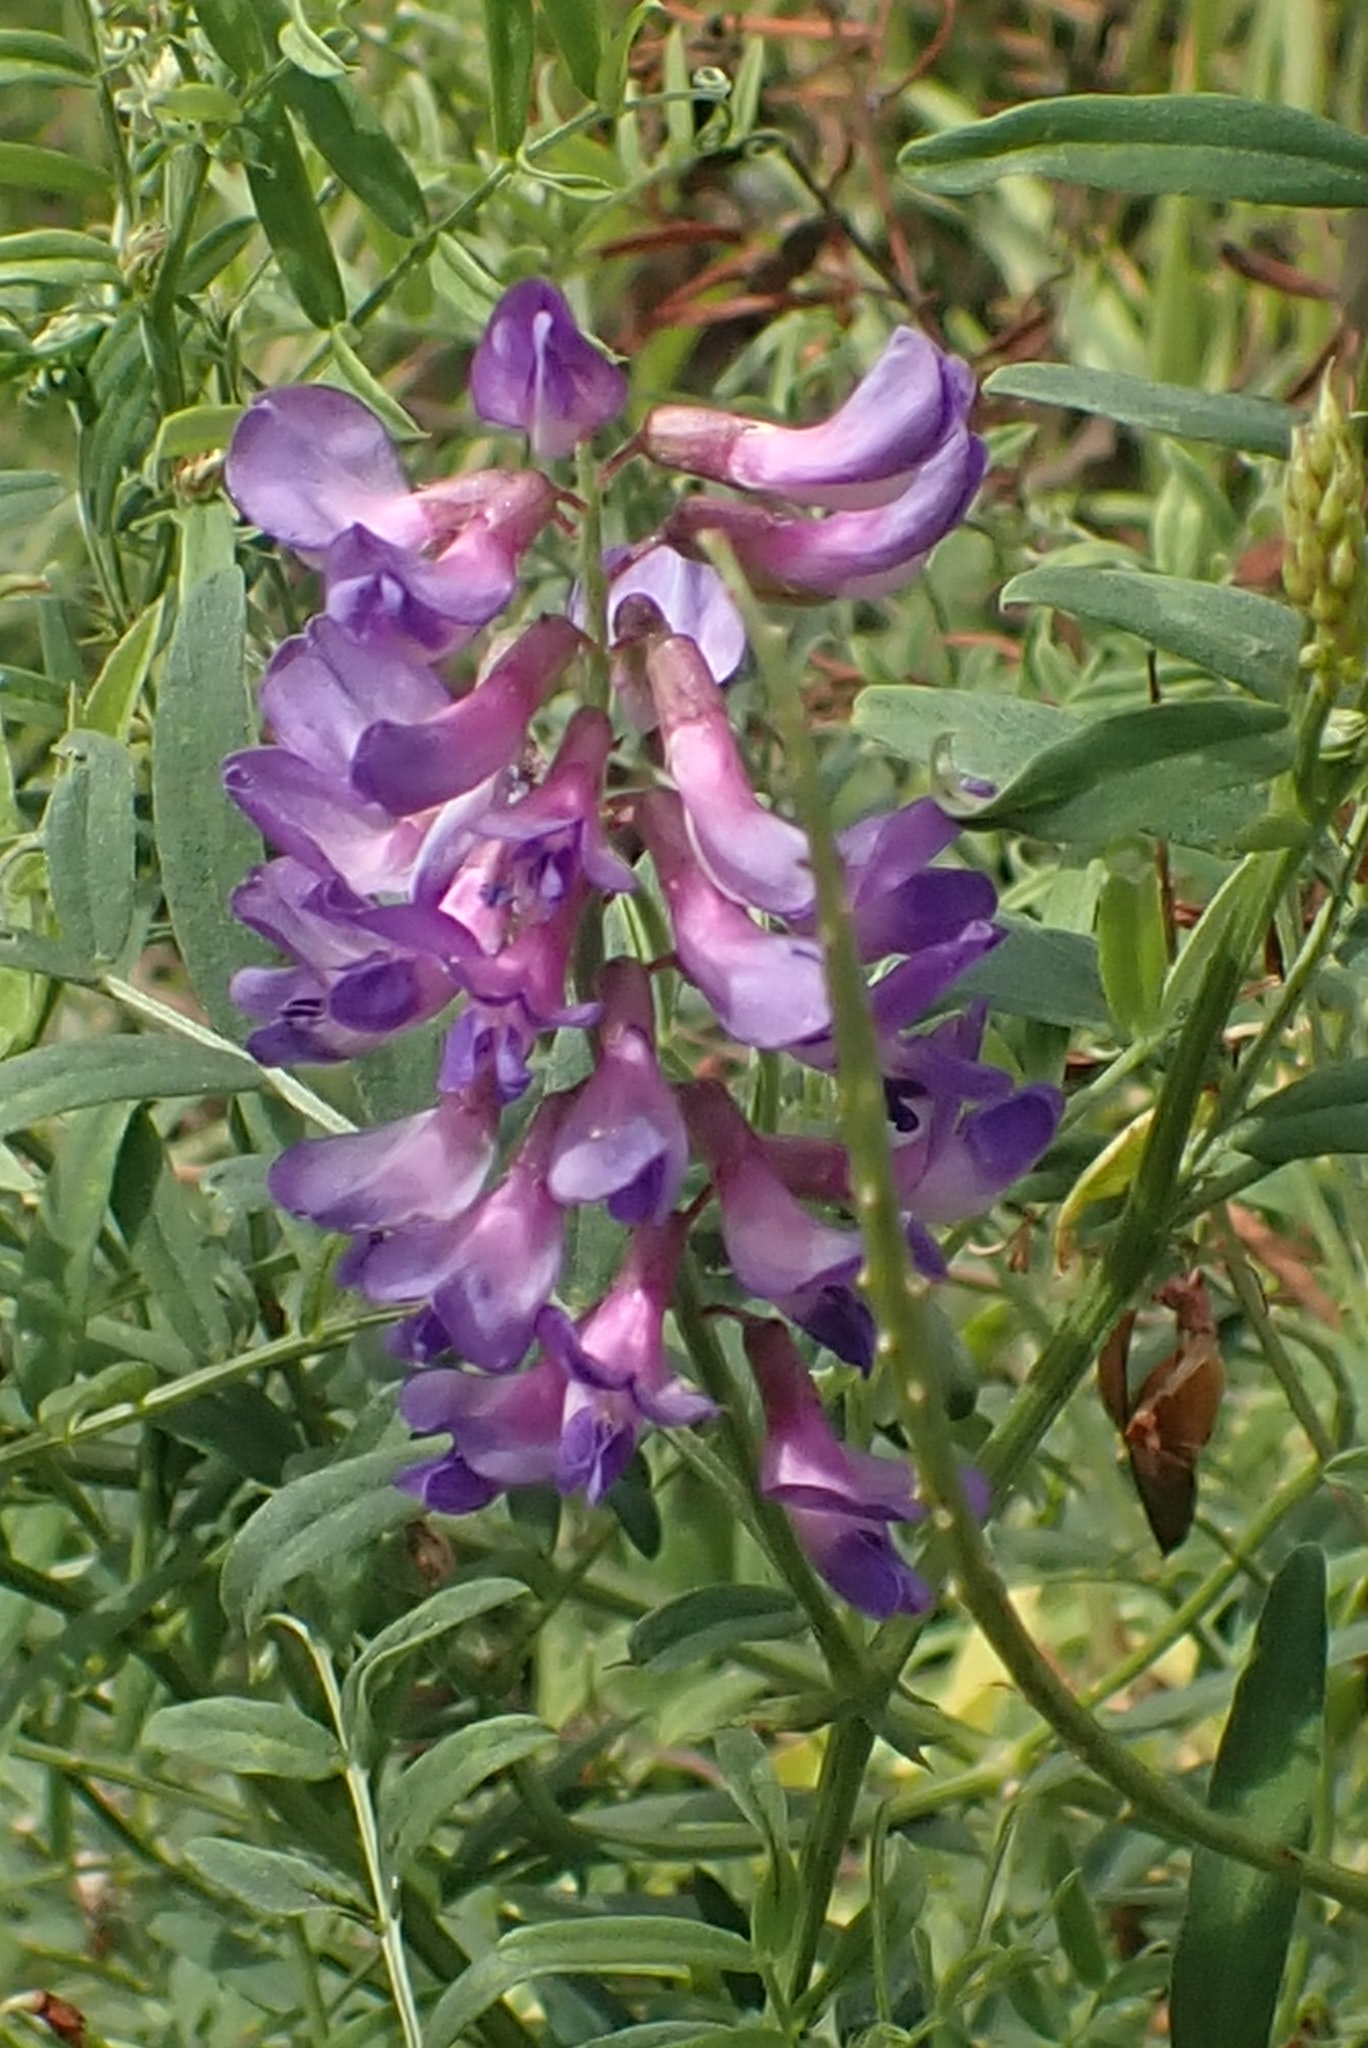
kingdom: Plantae
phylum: Tracheophyta
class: Magnoliopsida
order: Fabales
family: Fabaceae
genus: Vicia
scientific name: Vicia amoena
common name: Cheder ebs
